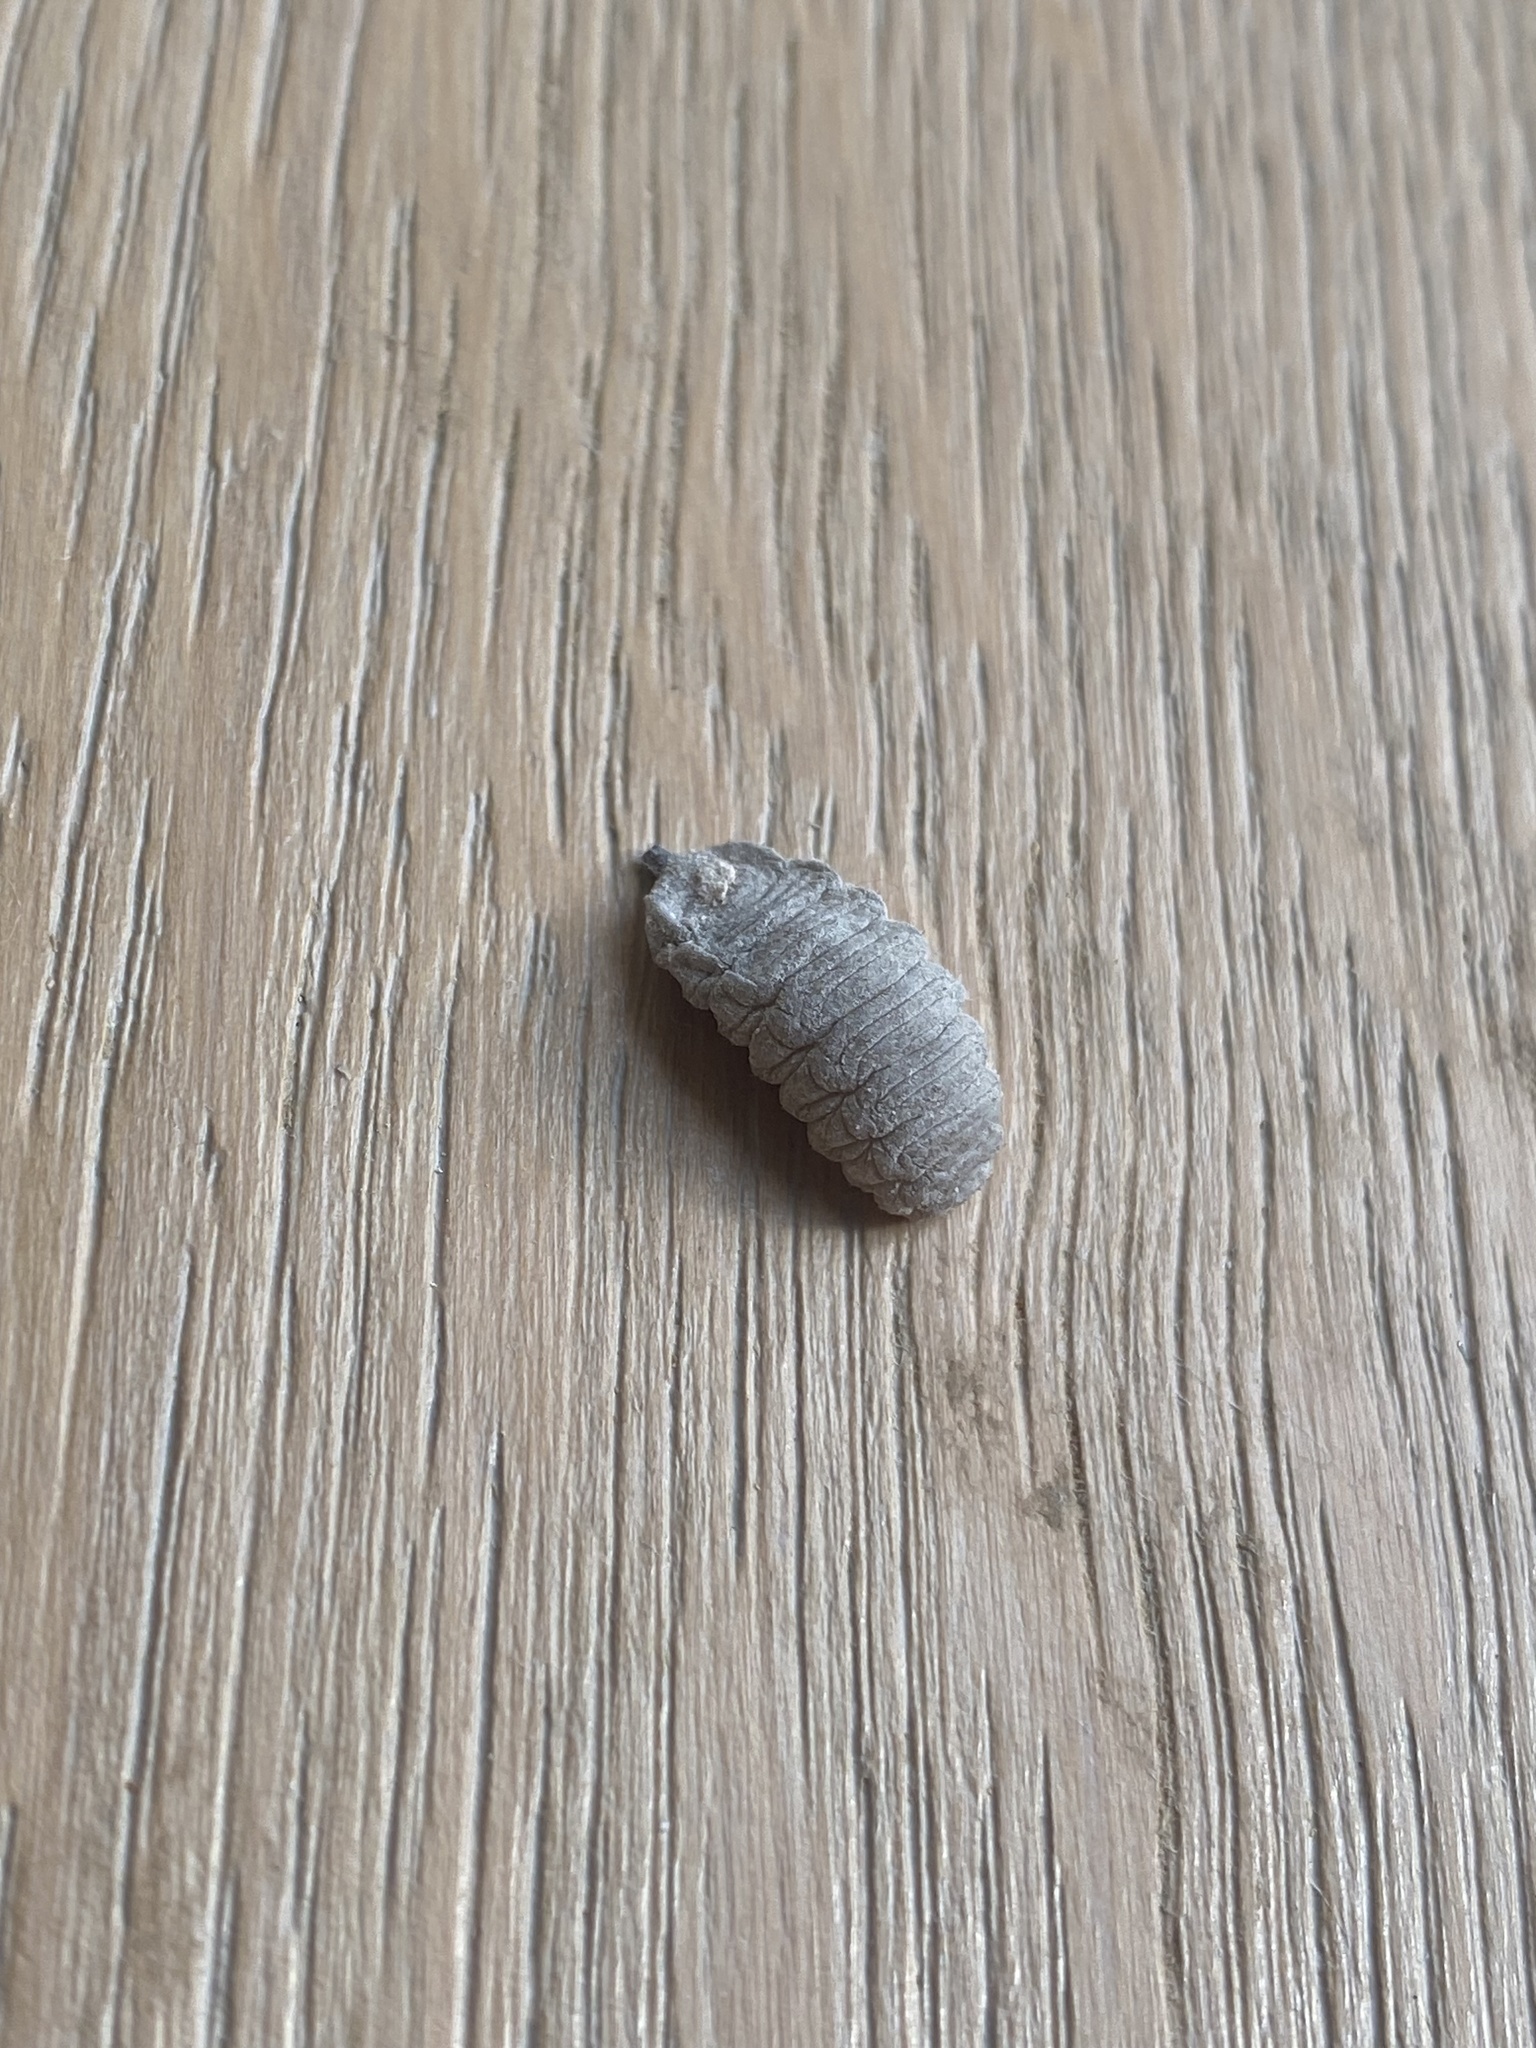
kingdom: Animalia
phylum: Arthropoda
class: Insecta
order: Diptera
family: Syrphidae
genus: Volucella
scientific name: Volucella inanis
